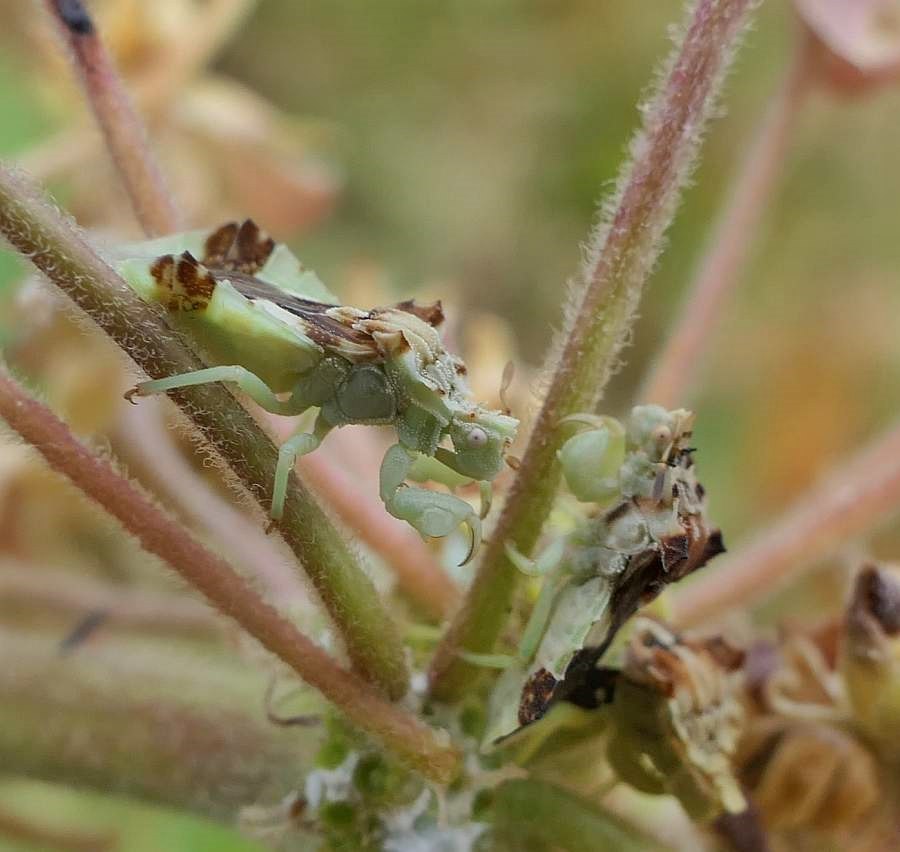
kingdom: Animalia
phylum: Arthropoda
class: Insecta
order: Hemiptera
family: Reduviidae
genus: Phymata
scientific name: Phymata americana
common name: Jagged ambush bug
